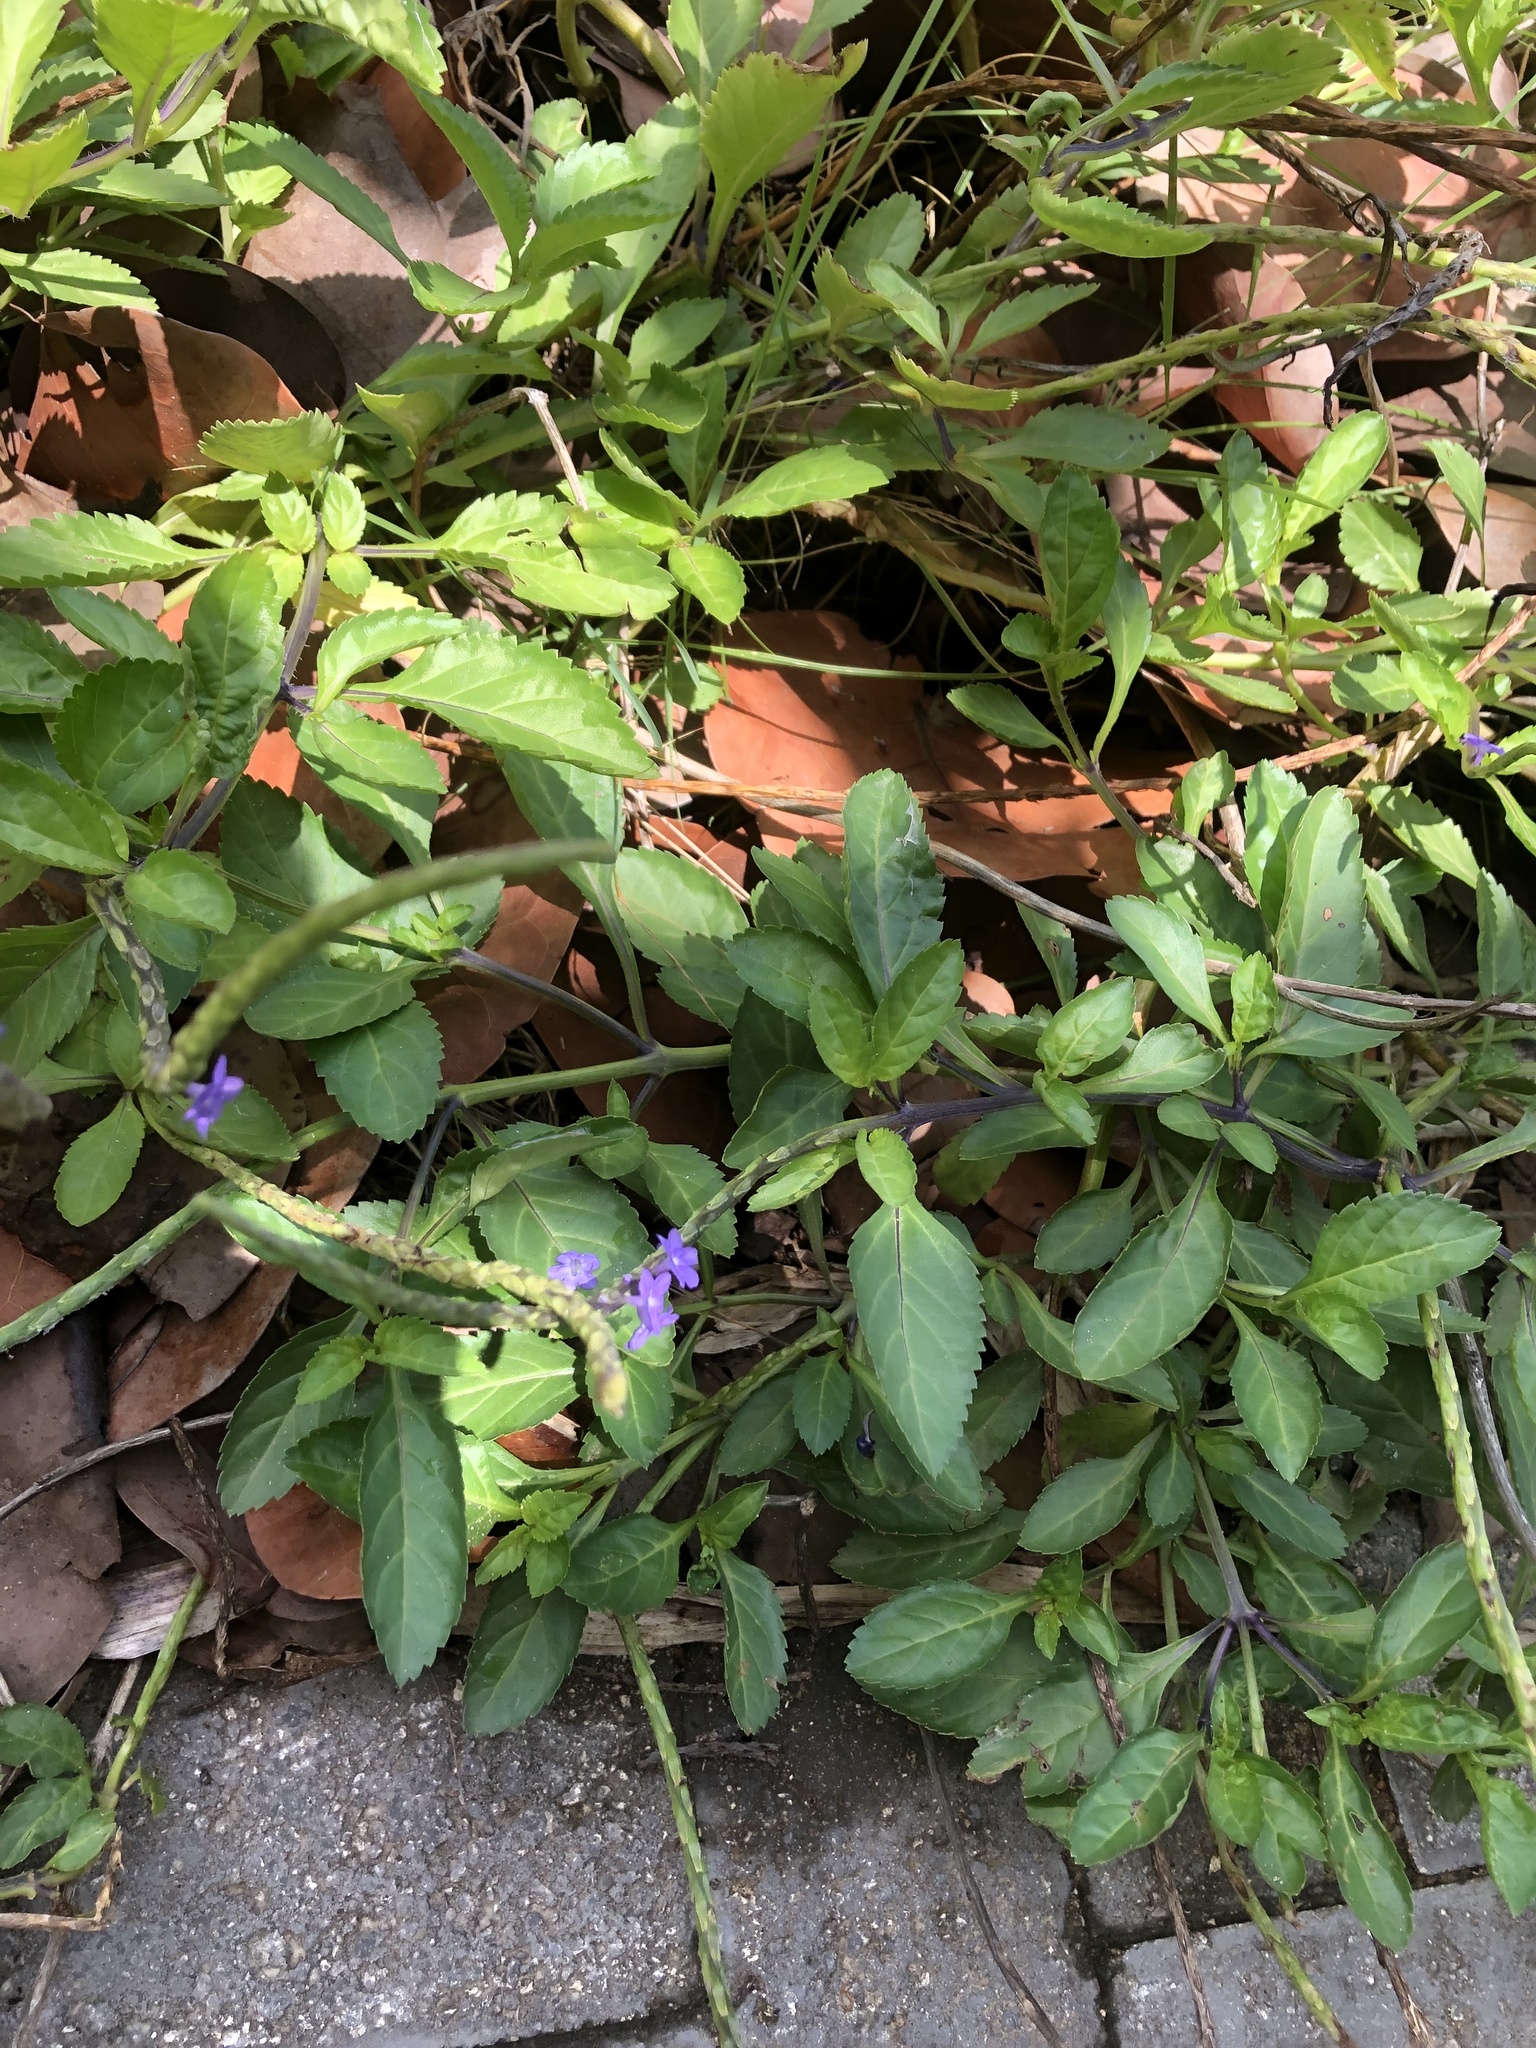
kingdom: Plantae
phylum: Tracheophyta
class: Magnoliopsida
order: Lamiales
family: Verbenaceae
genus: Stachytarpheta
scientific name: Stachytarpheta jamaicensis
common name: Light-blue snakeweed
